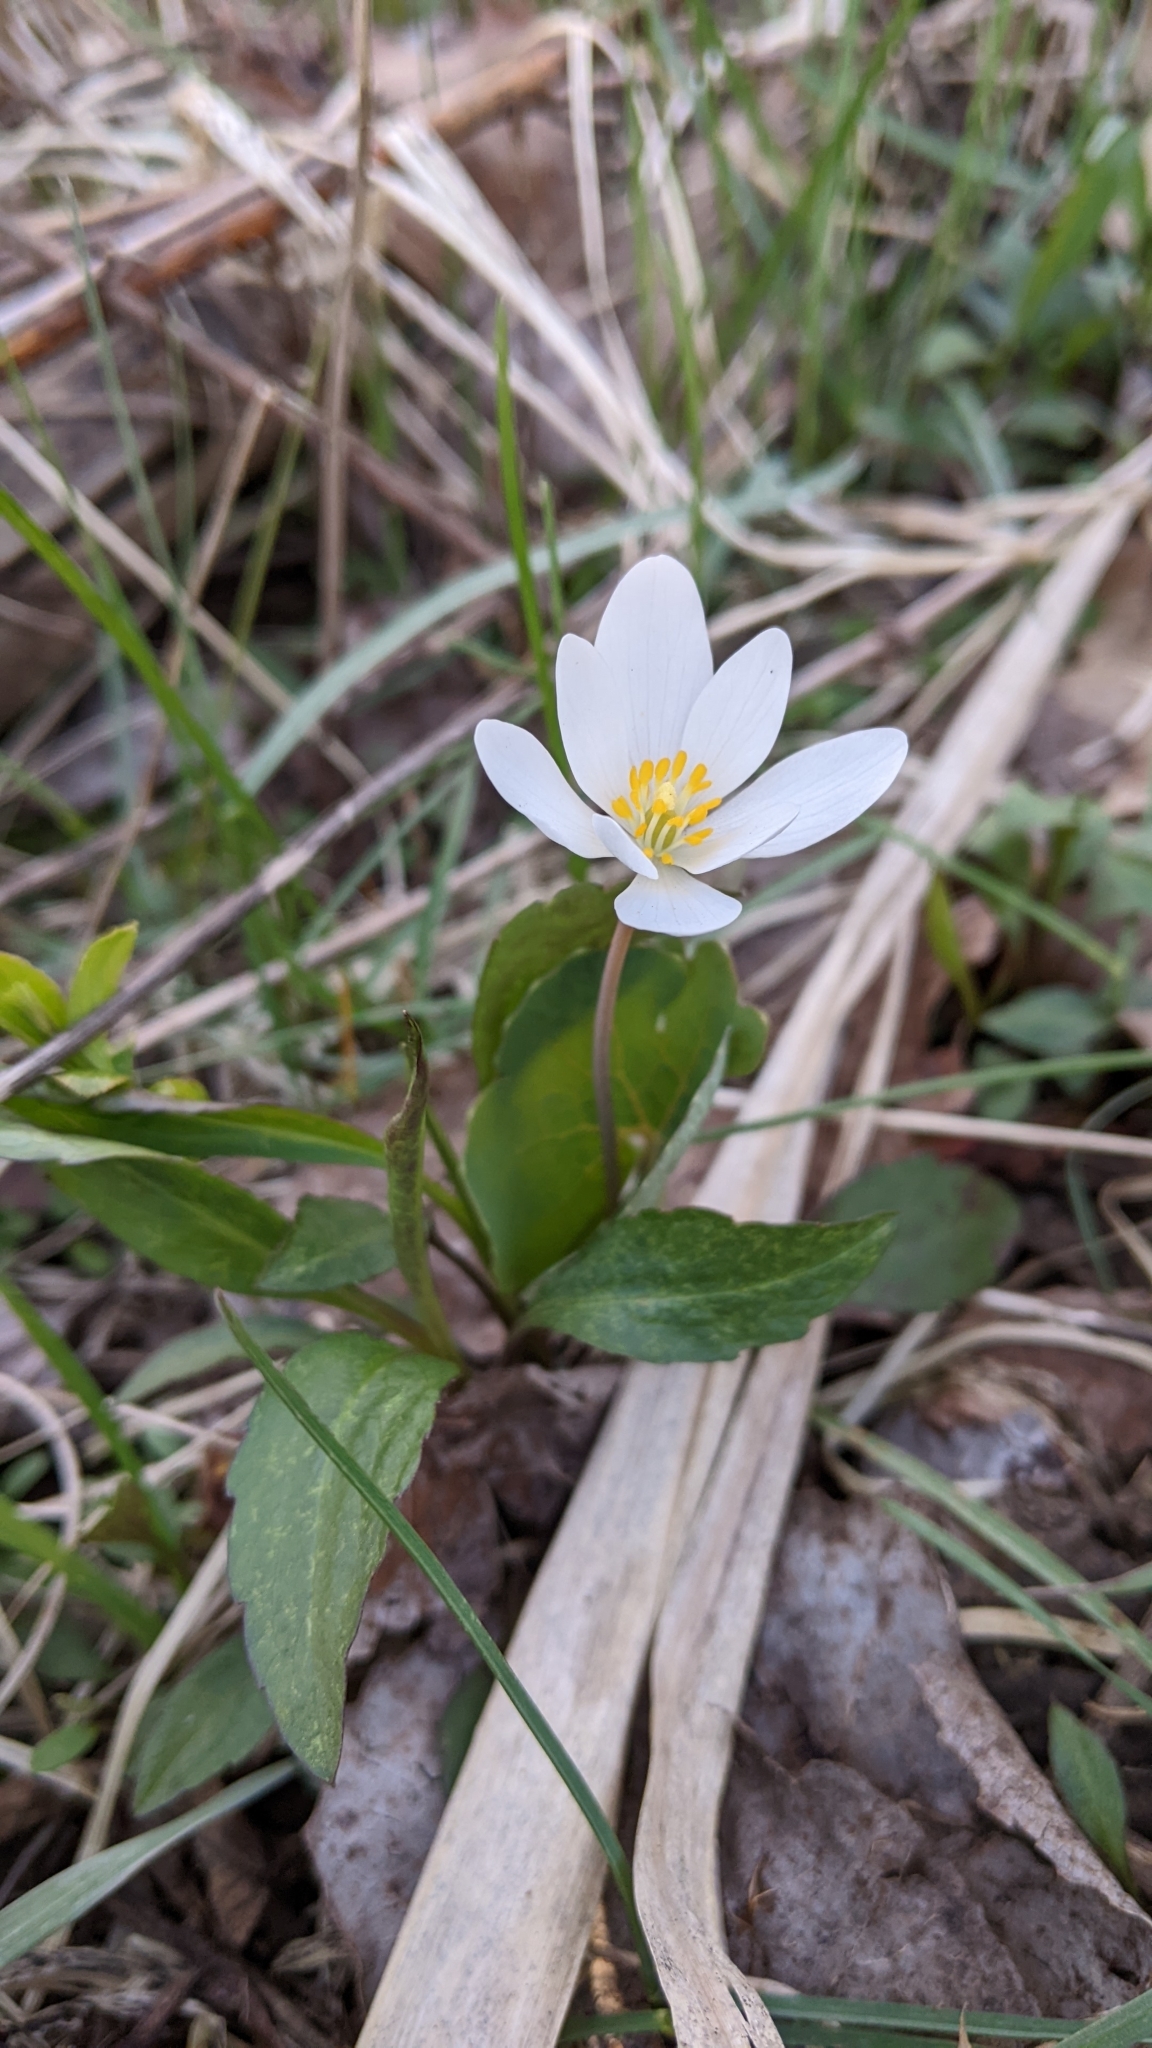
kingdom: Plantae
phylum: Tracheophyta
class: Magnoliopsida
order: Ranunculales
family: Papaveraceae
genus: Sanguinaria
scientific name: Sanguinaria canadensis
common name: Bloodroot
